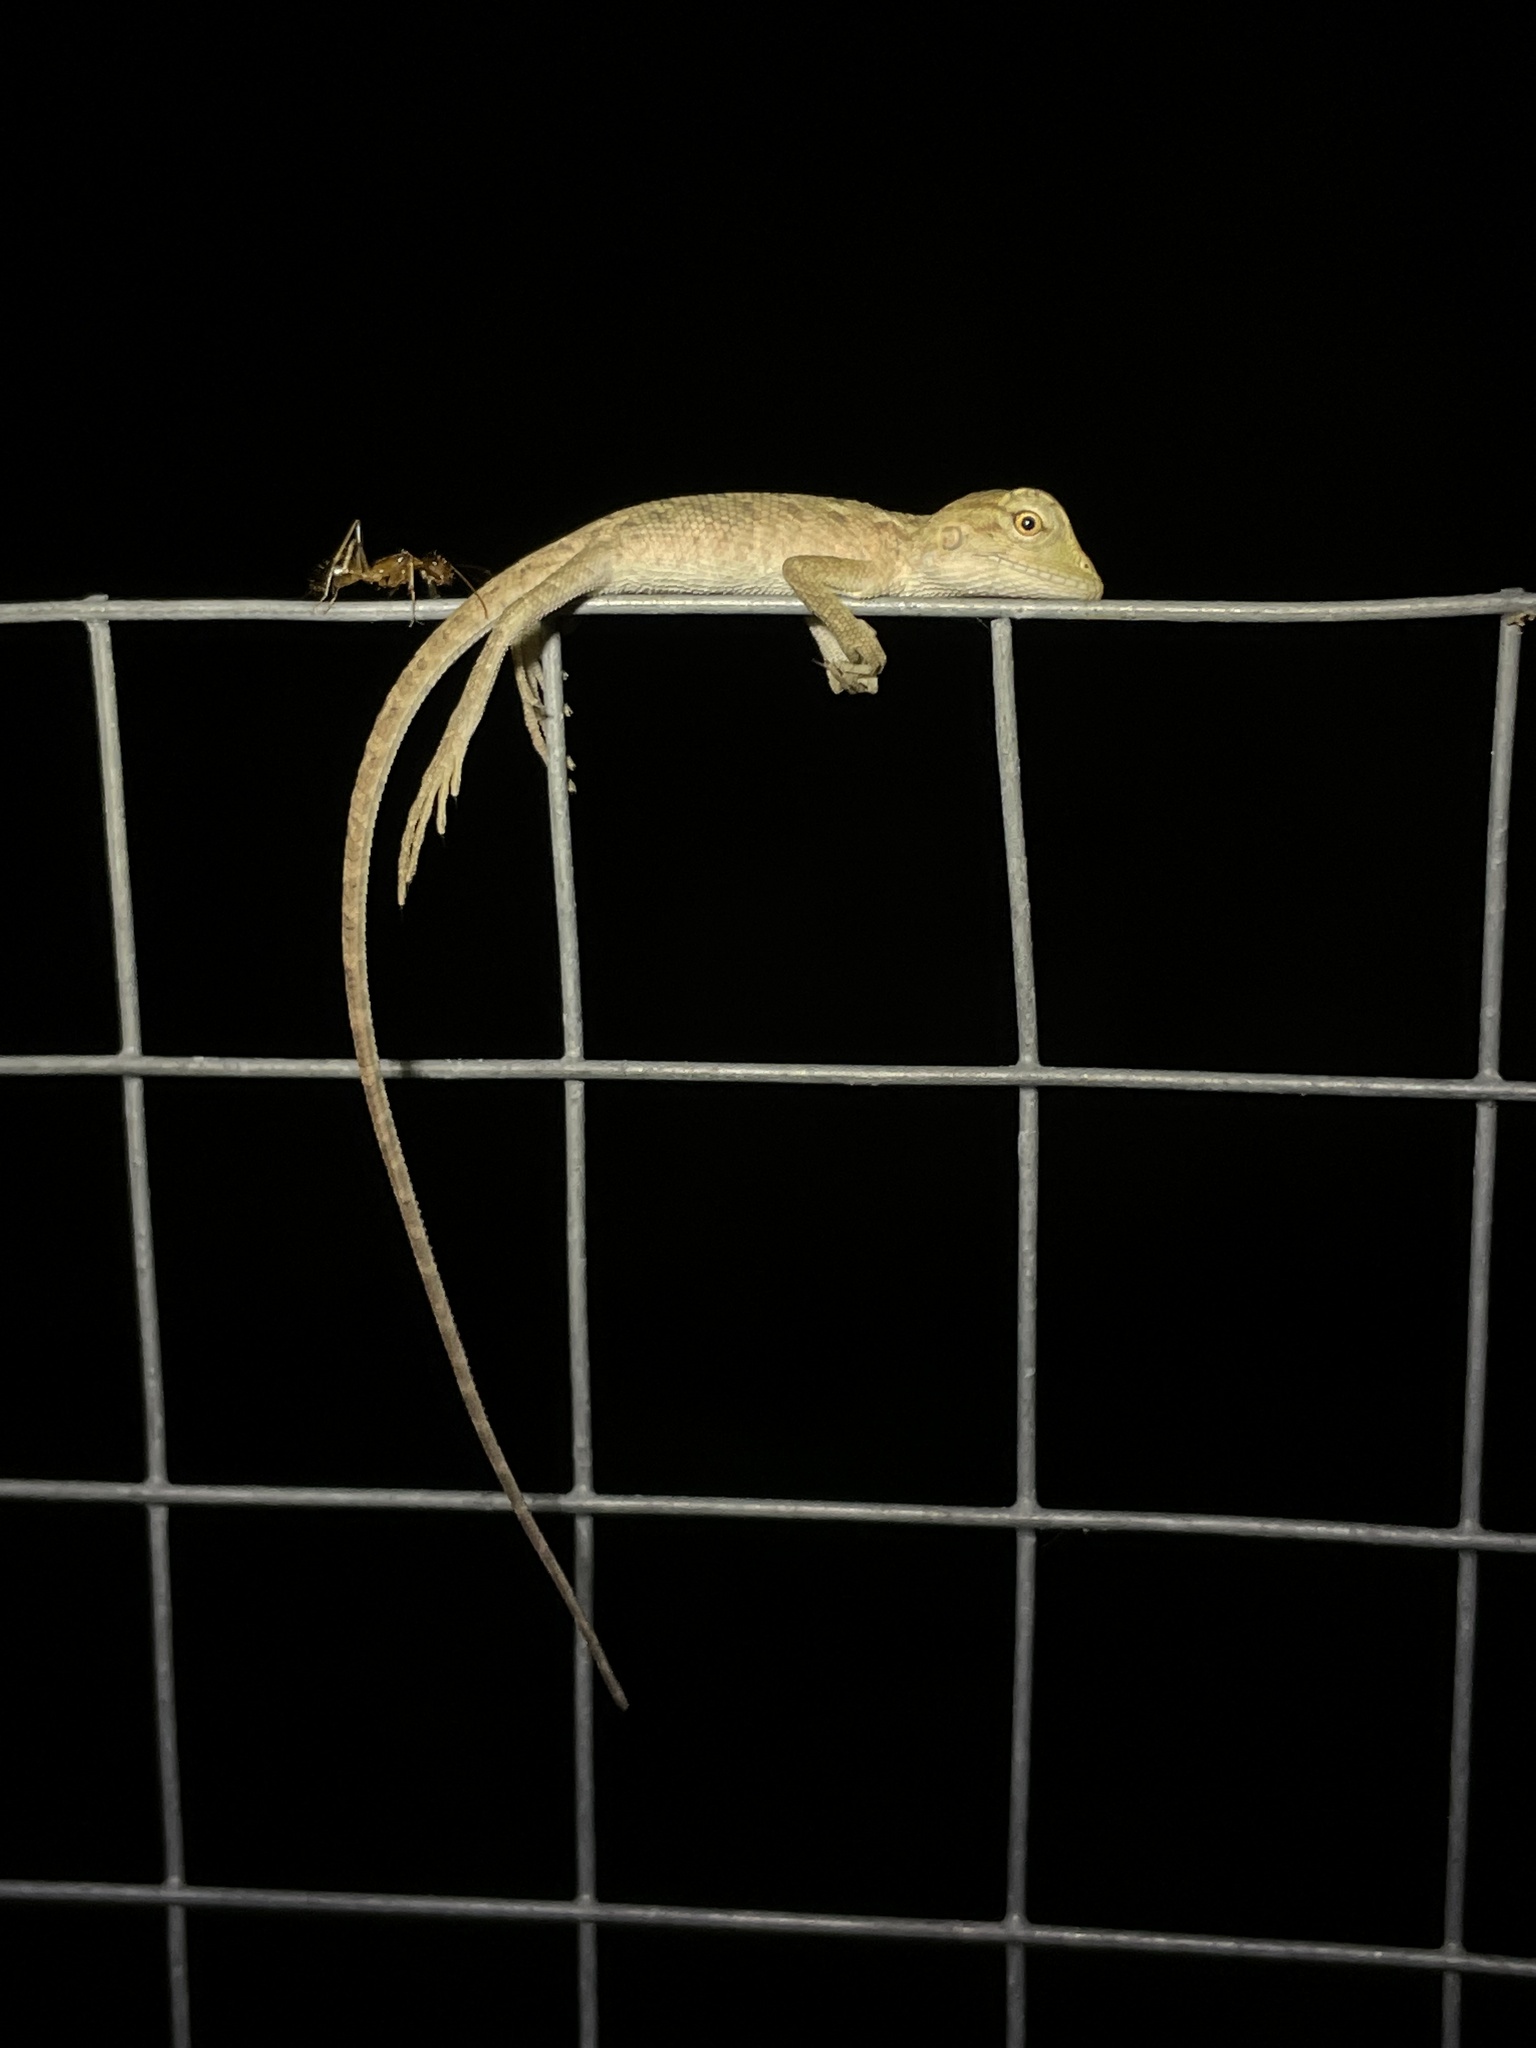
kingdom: Animalia
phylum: Chordata
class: Squamata
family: Agamidae
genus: Calotes
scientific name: Calotes versicolor
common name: Oriental garden lizard
